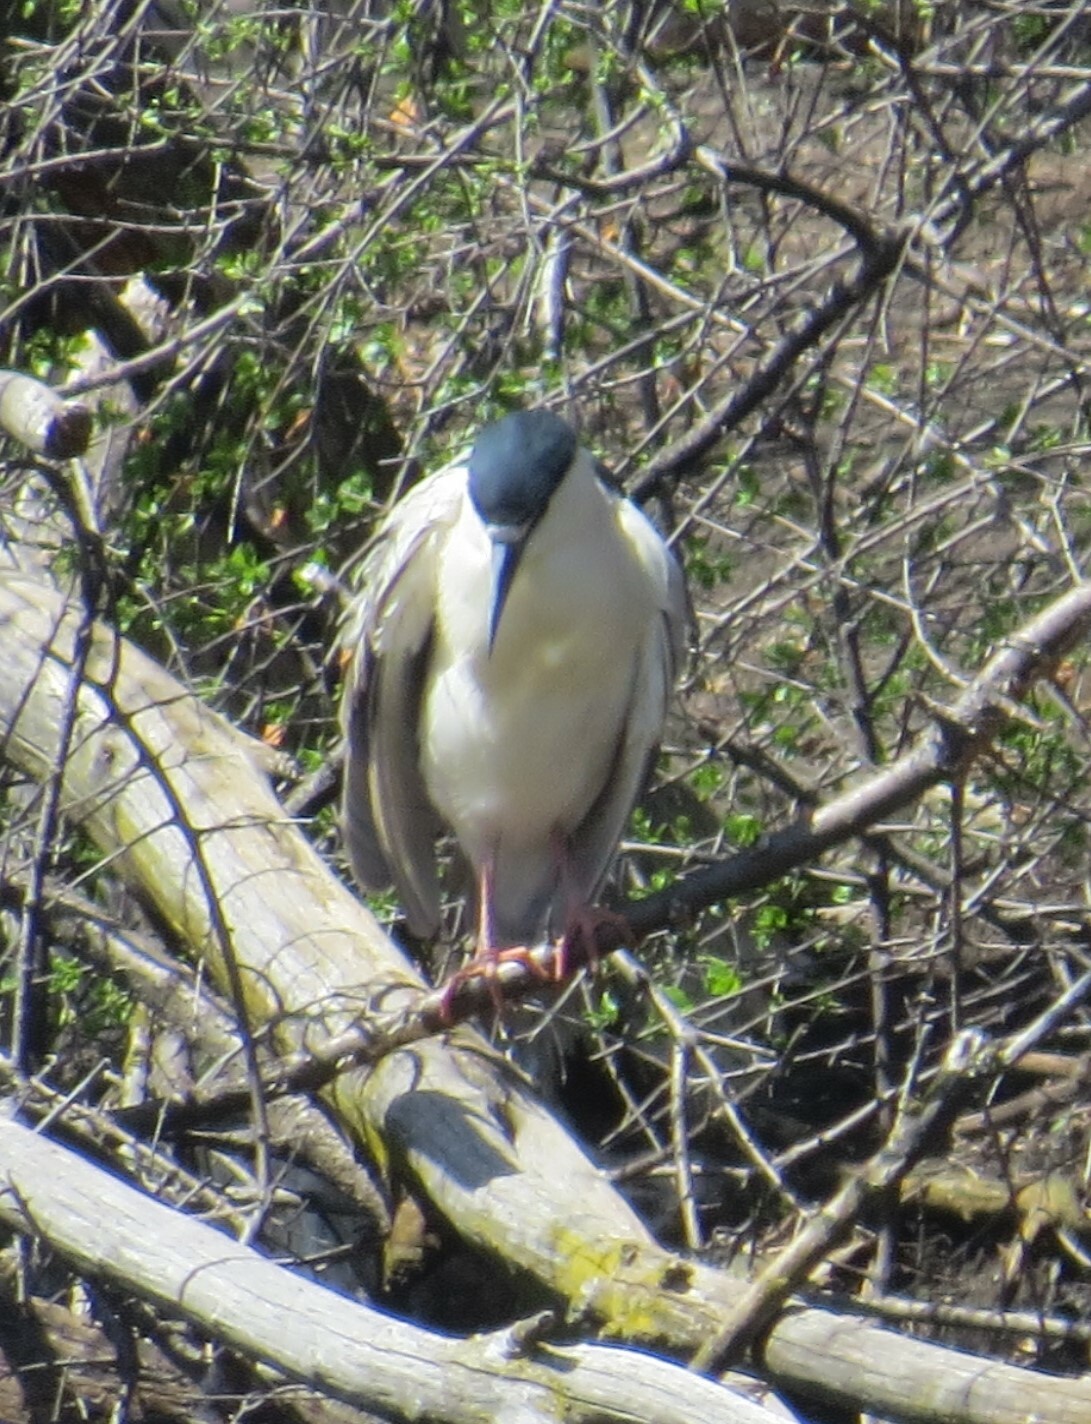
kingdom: Animalia
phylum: Chordata
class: Aves
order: Pelecaniformes
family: Ardeidae
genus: Nycticorax
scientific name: Nycticorax nycticorax
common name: Black-crowned night heron
